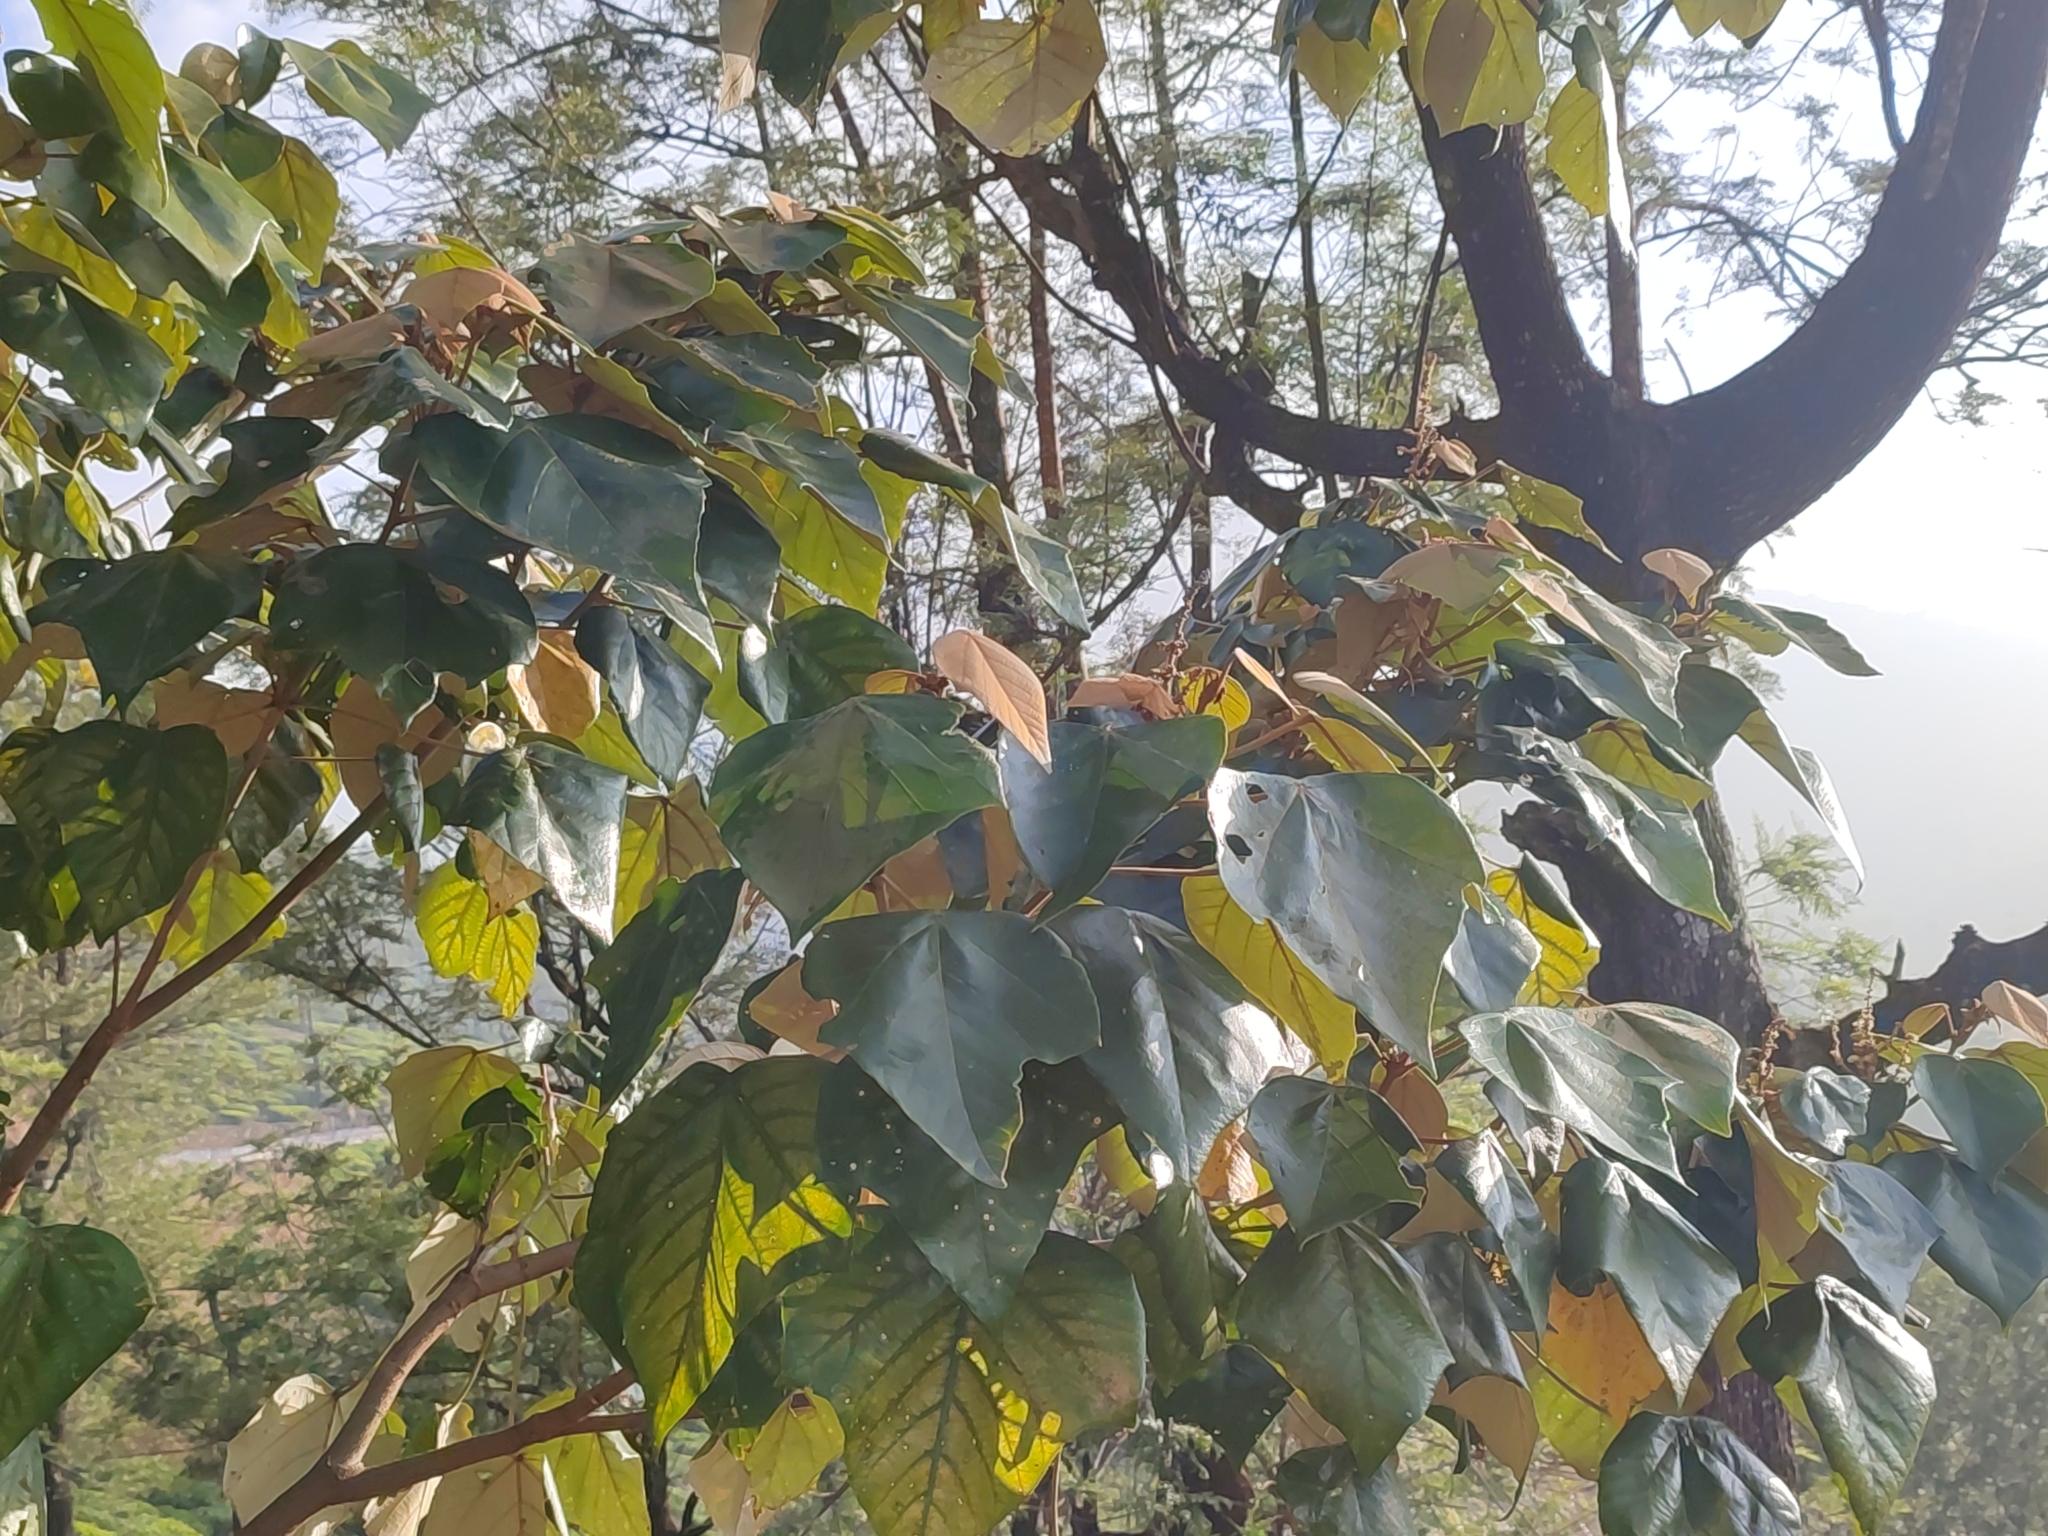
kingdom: Plantae
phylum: Tracheophyta
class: Magnoliopsida
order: Malpighiales
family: Euphorbiaceae
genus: Mallotus
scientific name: Mallotus tetracoccus
